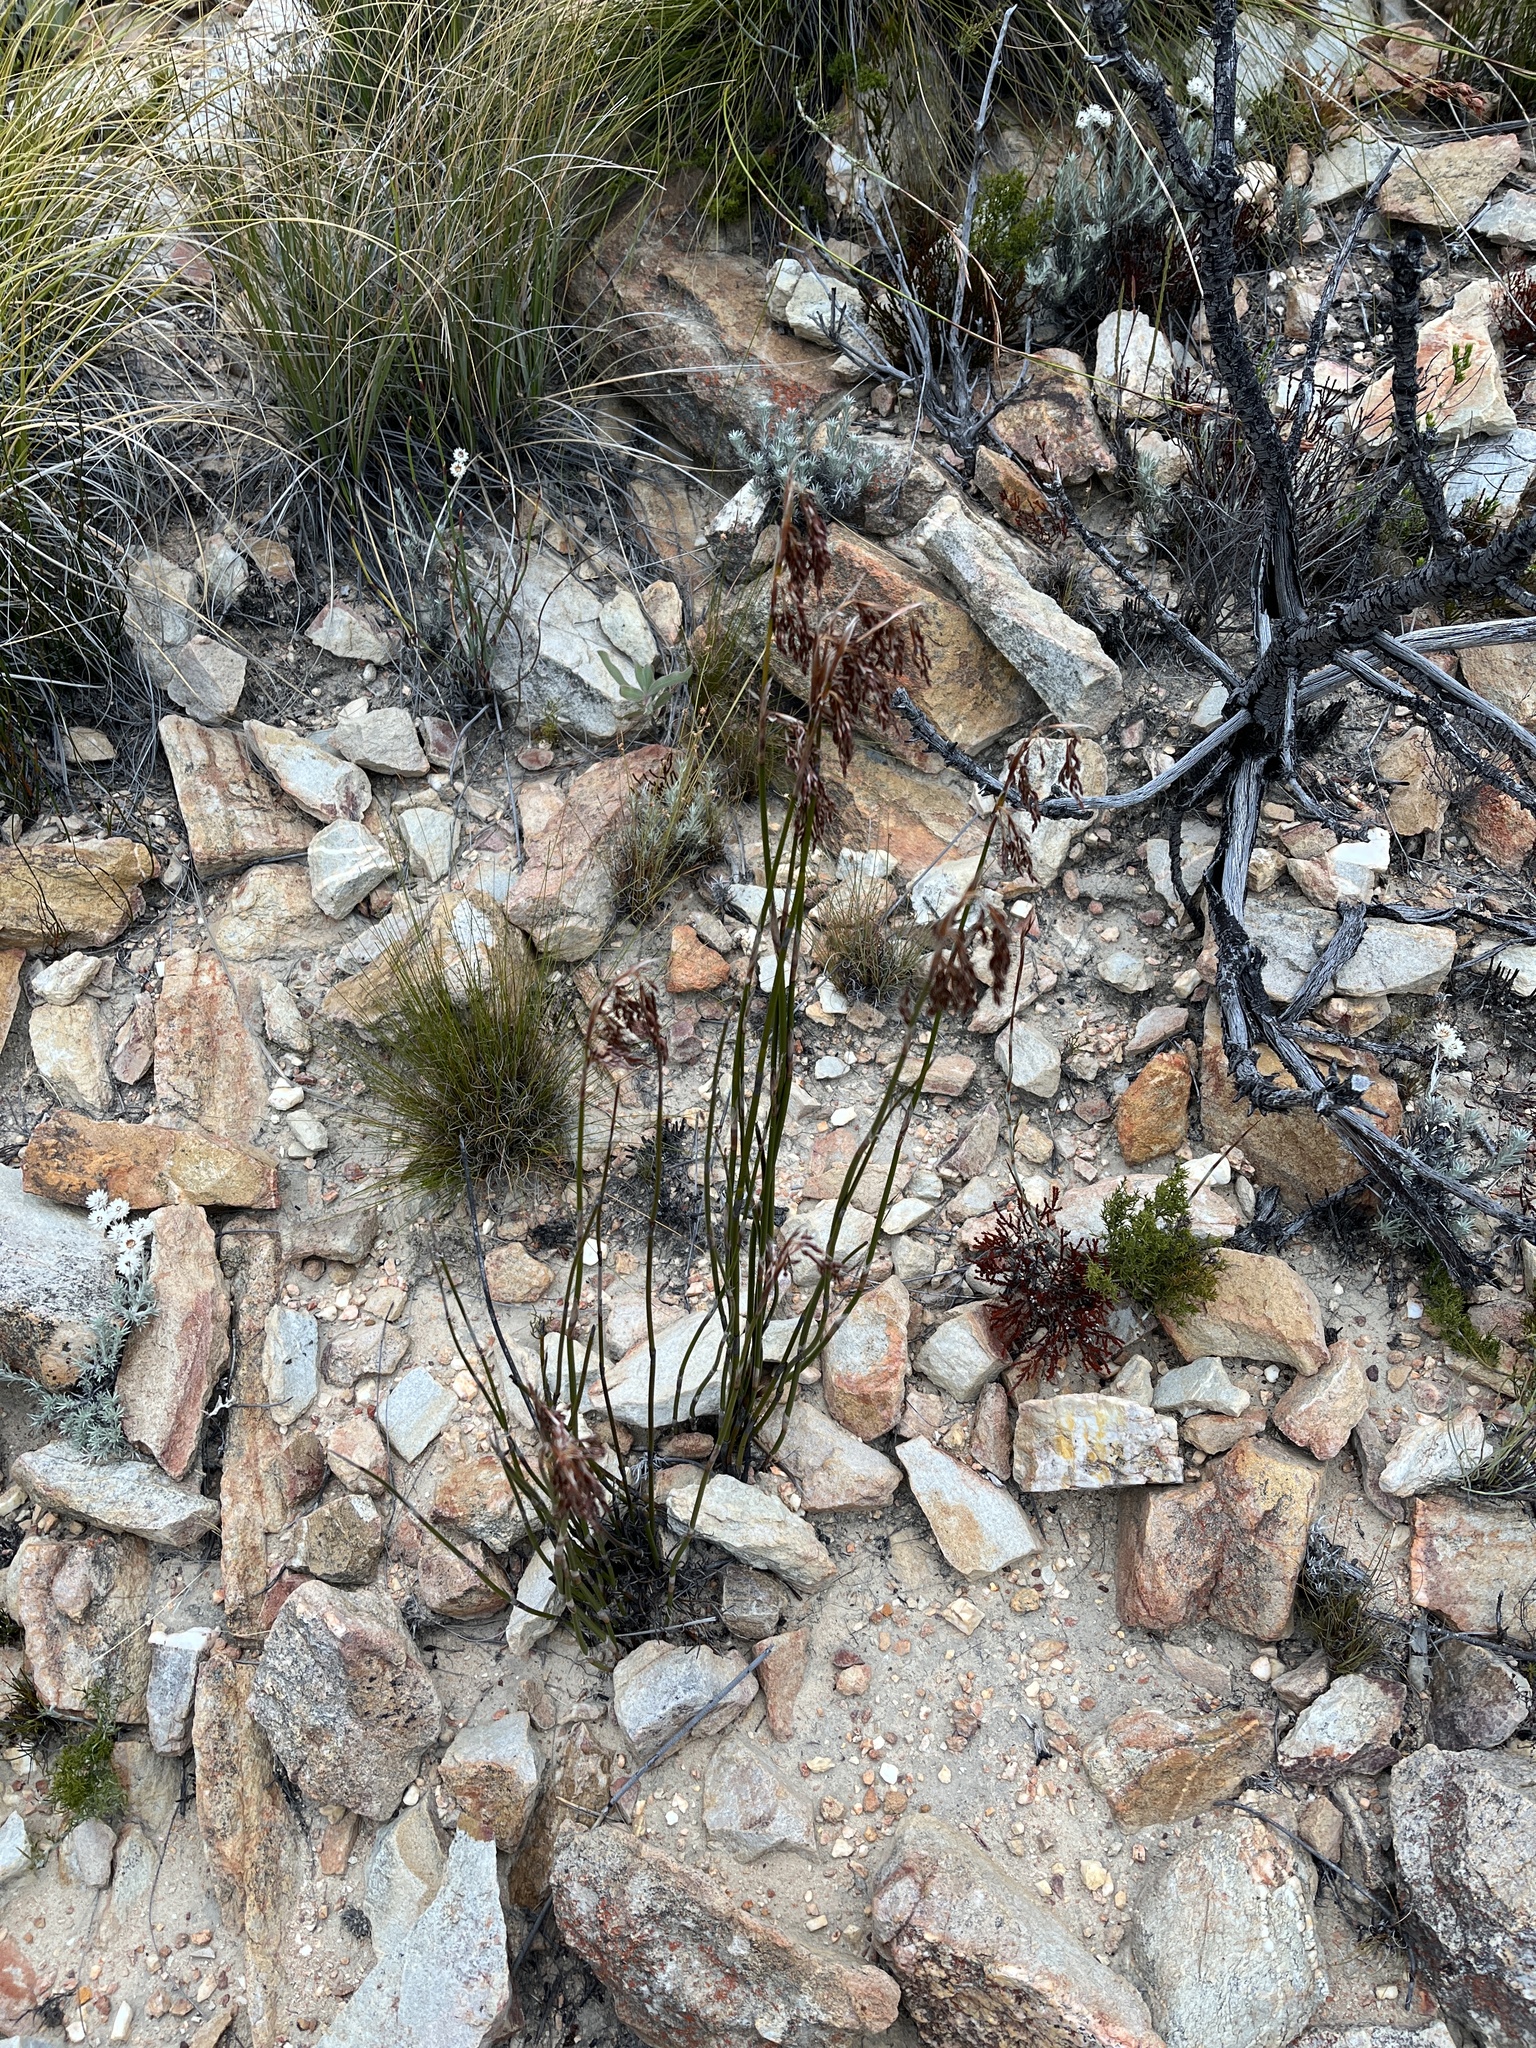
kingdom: Plantae
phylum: Tracheophyta
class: Liliopsida
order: Poales
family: Restionaceae
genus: Rhodocoma
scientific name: Rhodocoma fruticosa
